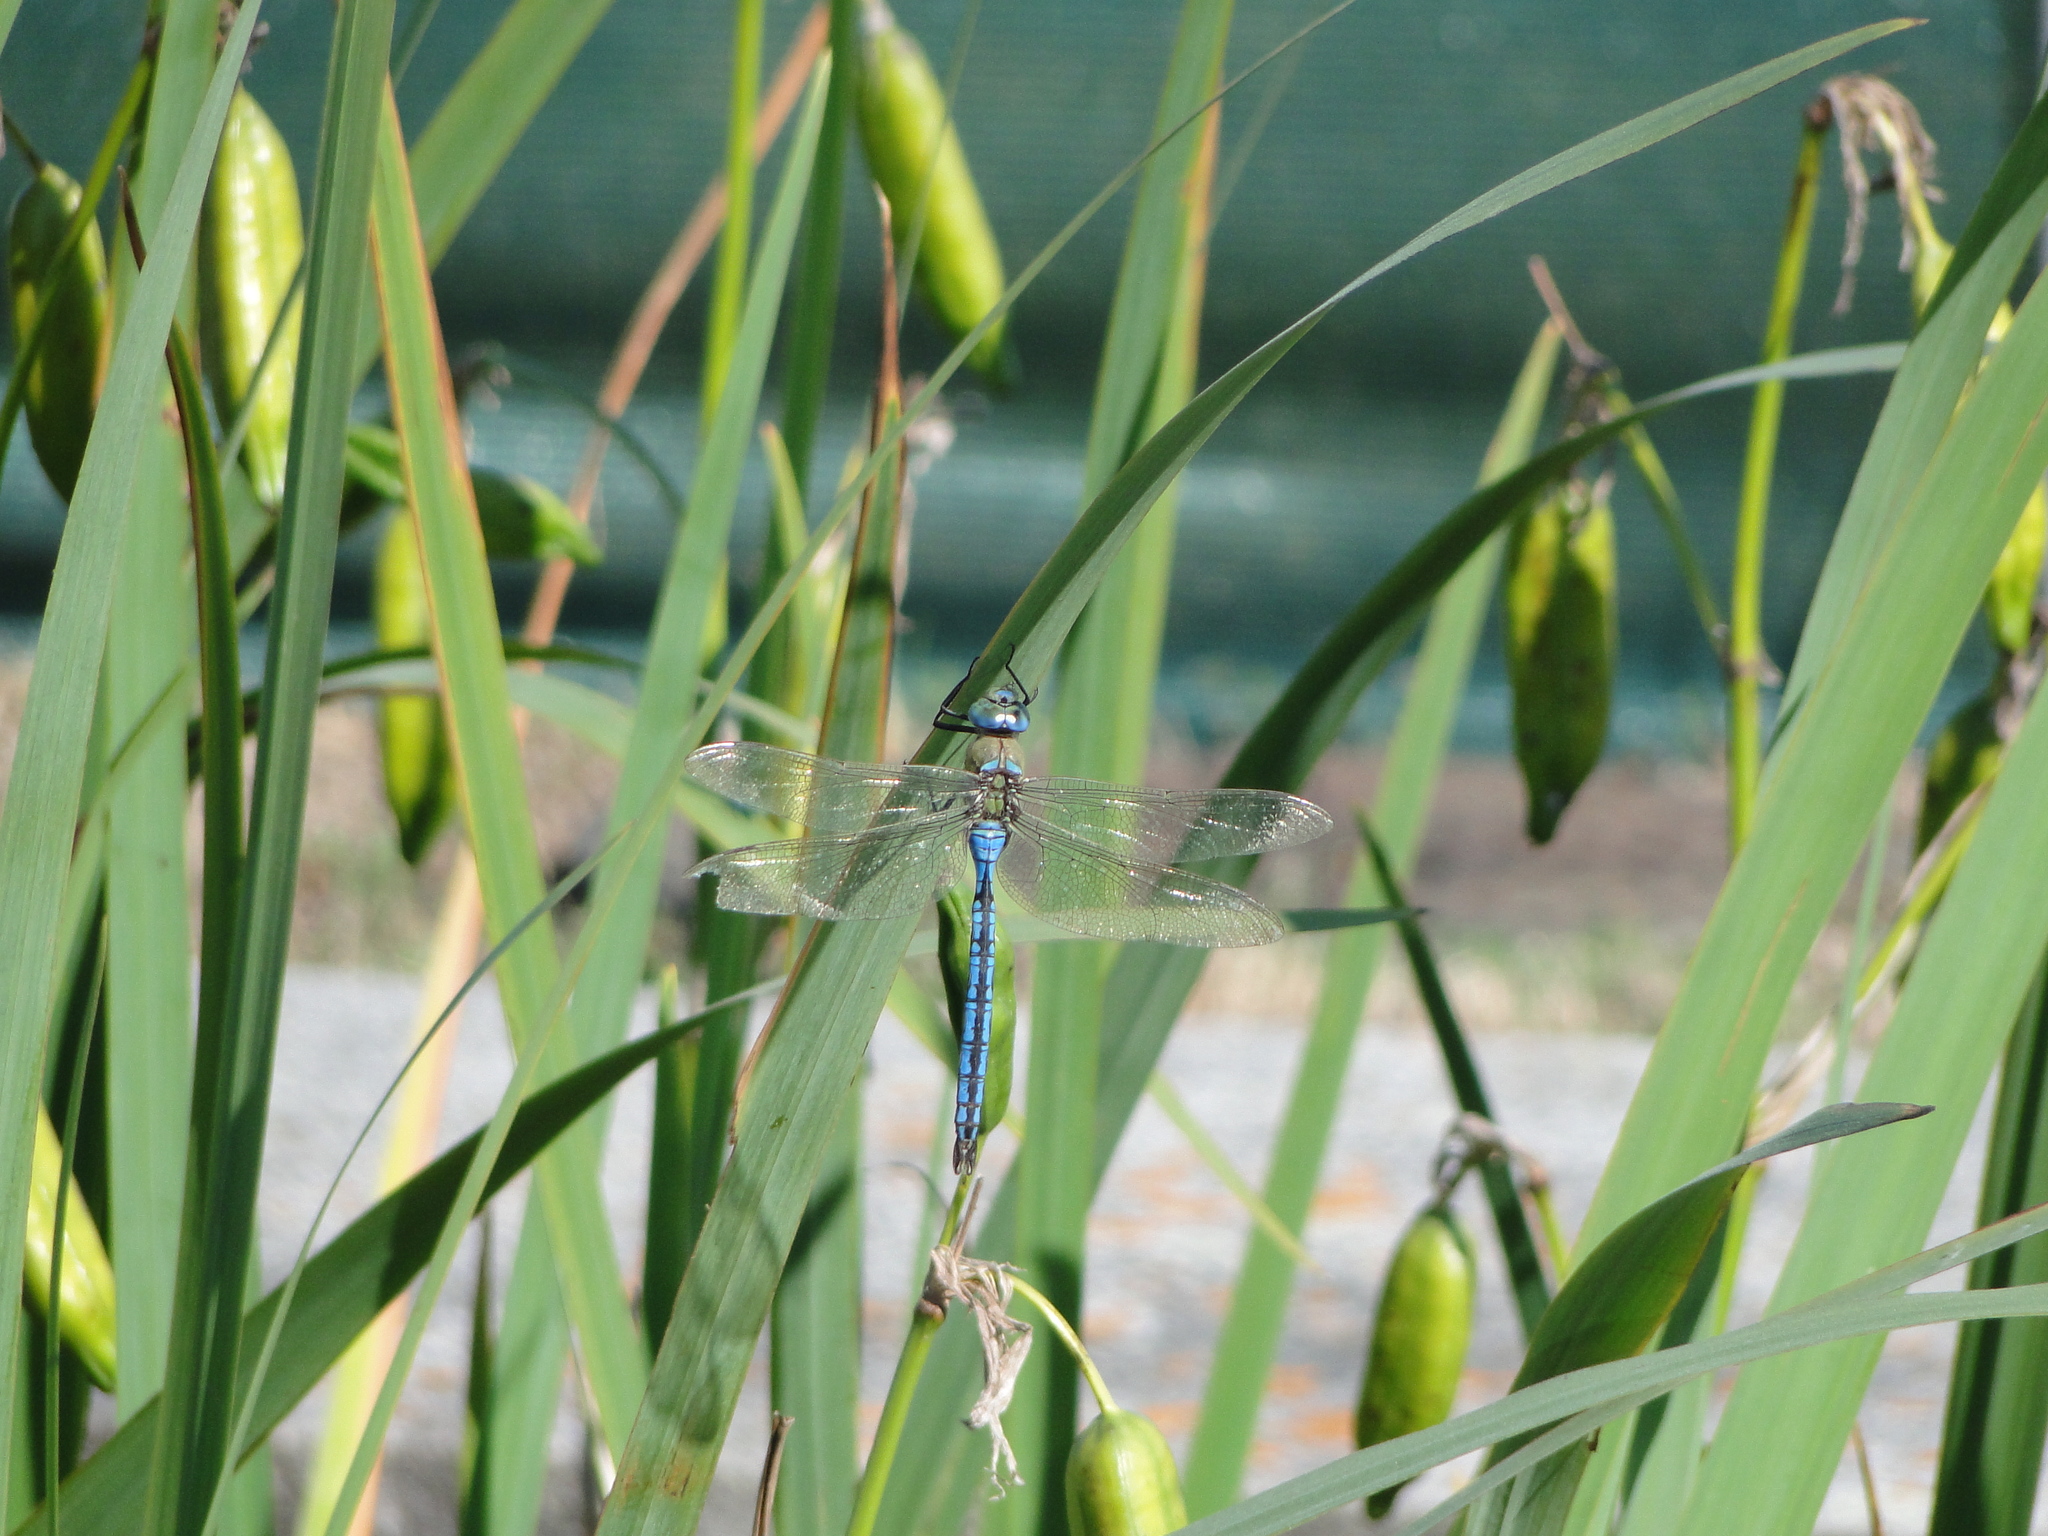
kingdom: Animalia
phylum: Arthropoda
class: Insecta
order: Odonata
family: Aeshnidae
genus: Anax
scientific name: Anax imperator
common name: Emperor dragonfly
